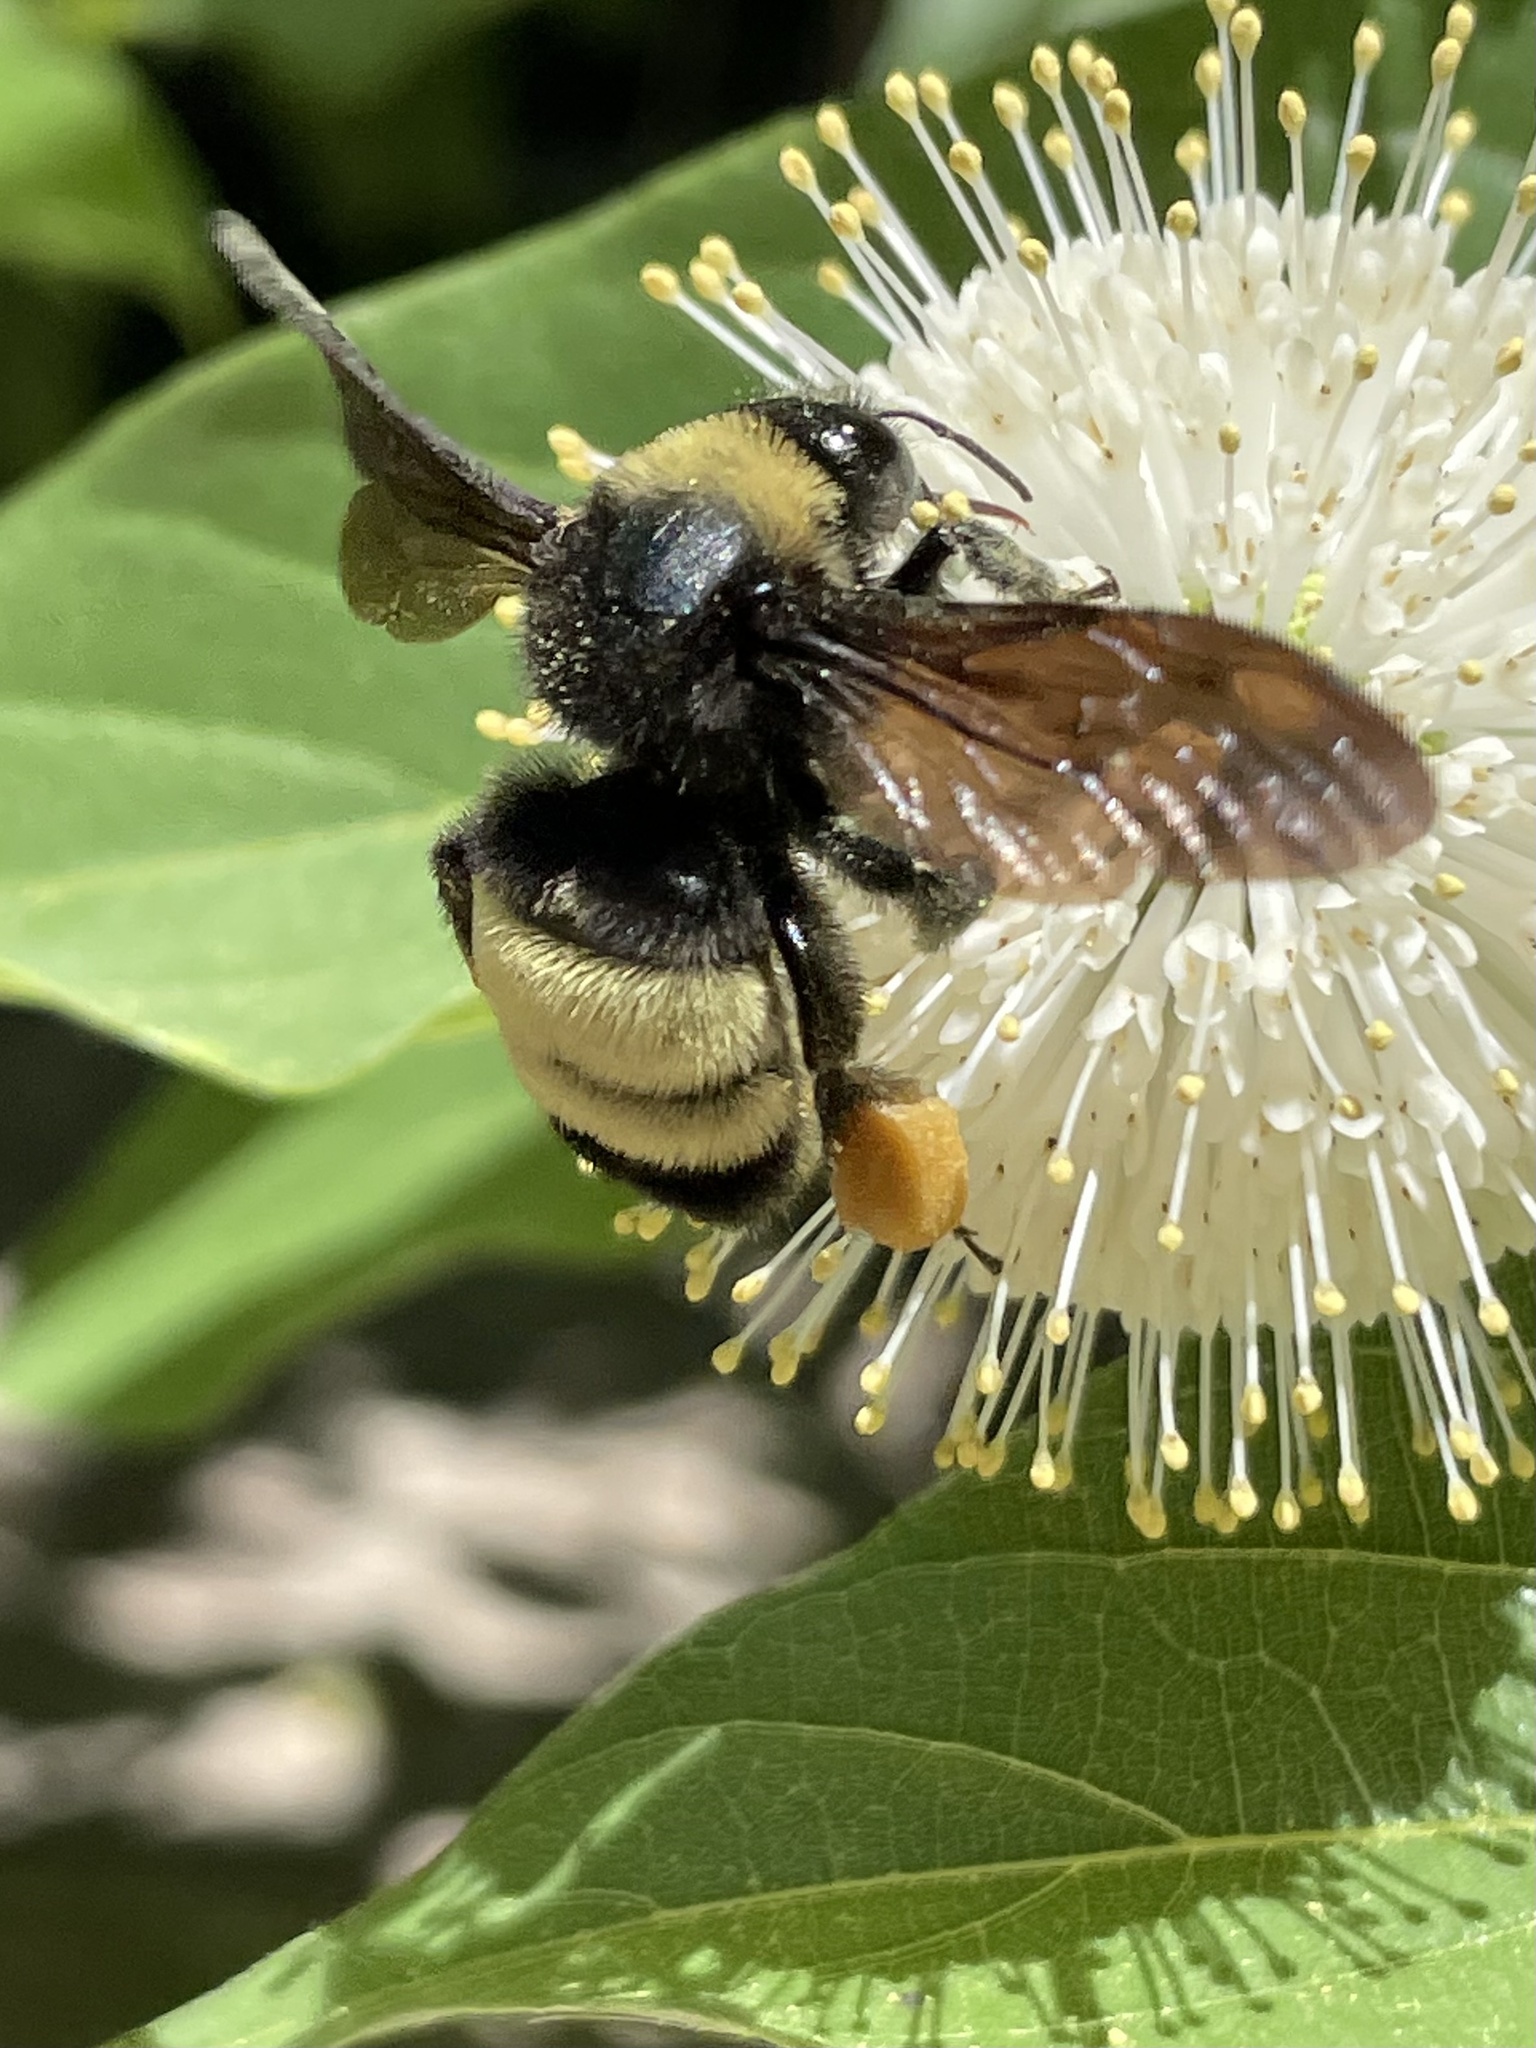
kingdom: Animalia
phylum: Arthropoda
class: Insecta
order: Hymenoptera
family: Apidae
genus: Bombus
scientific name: Bombus pensylvanicus
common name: Bumble bee
